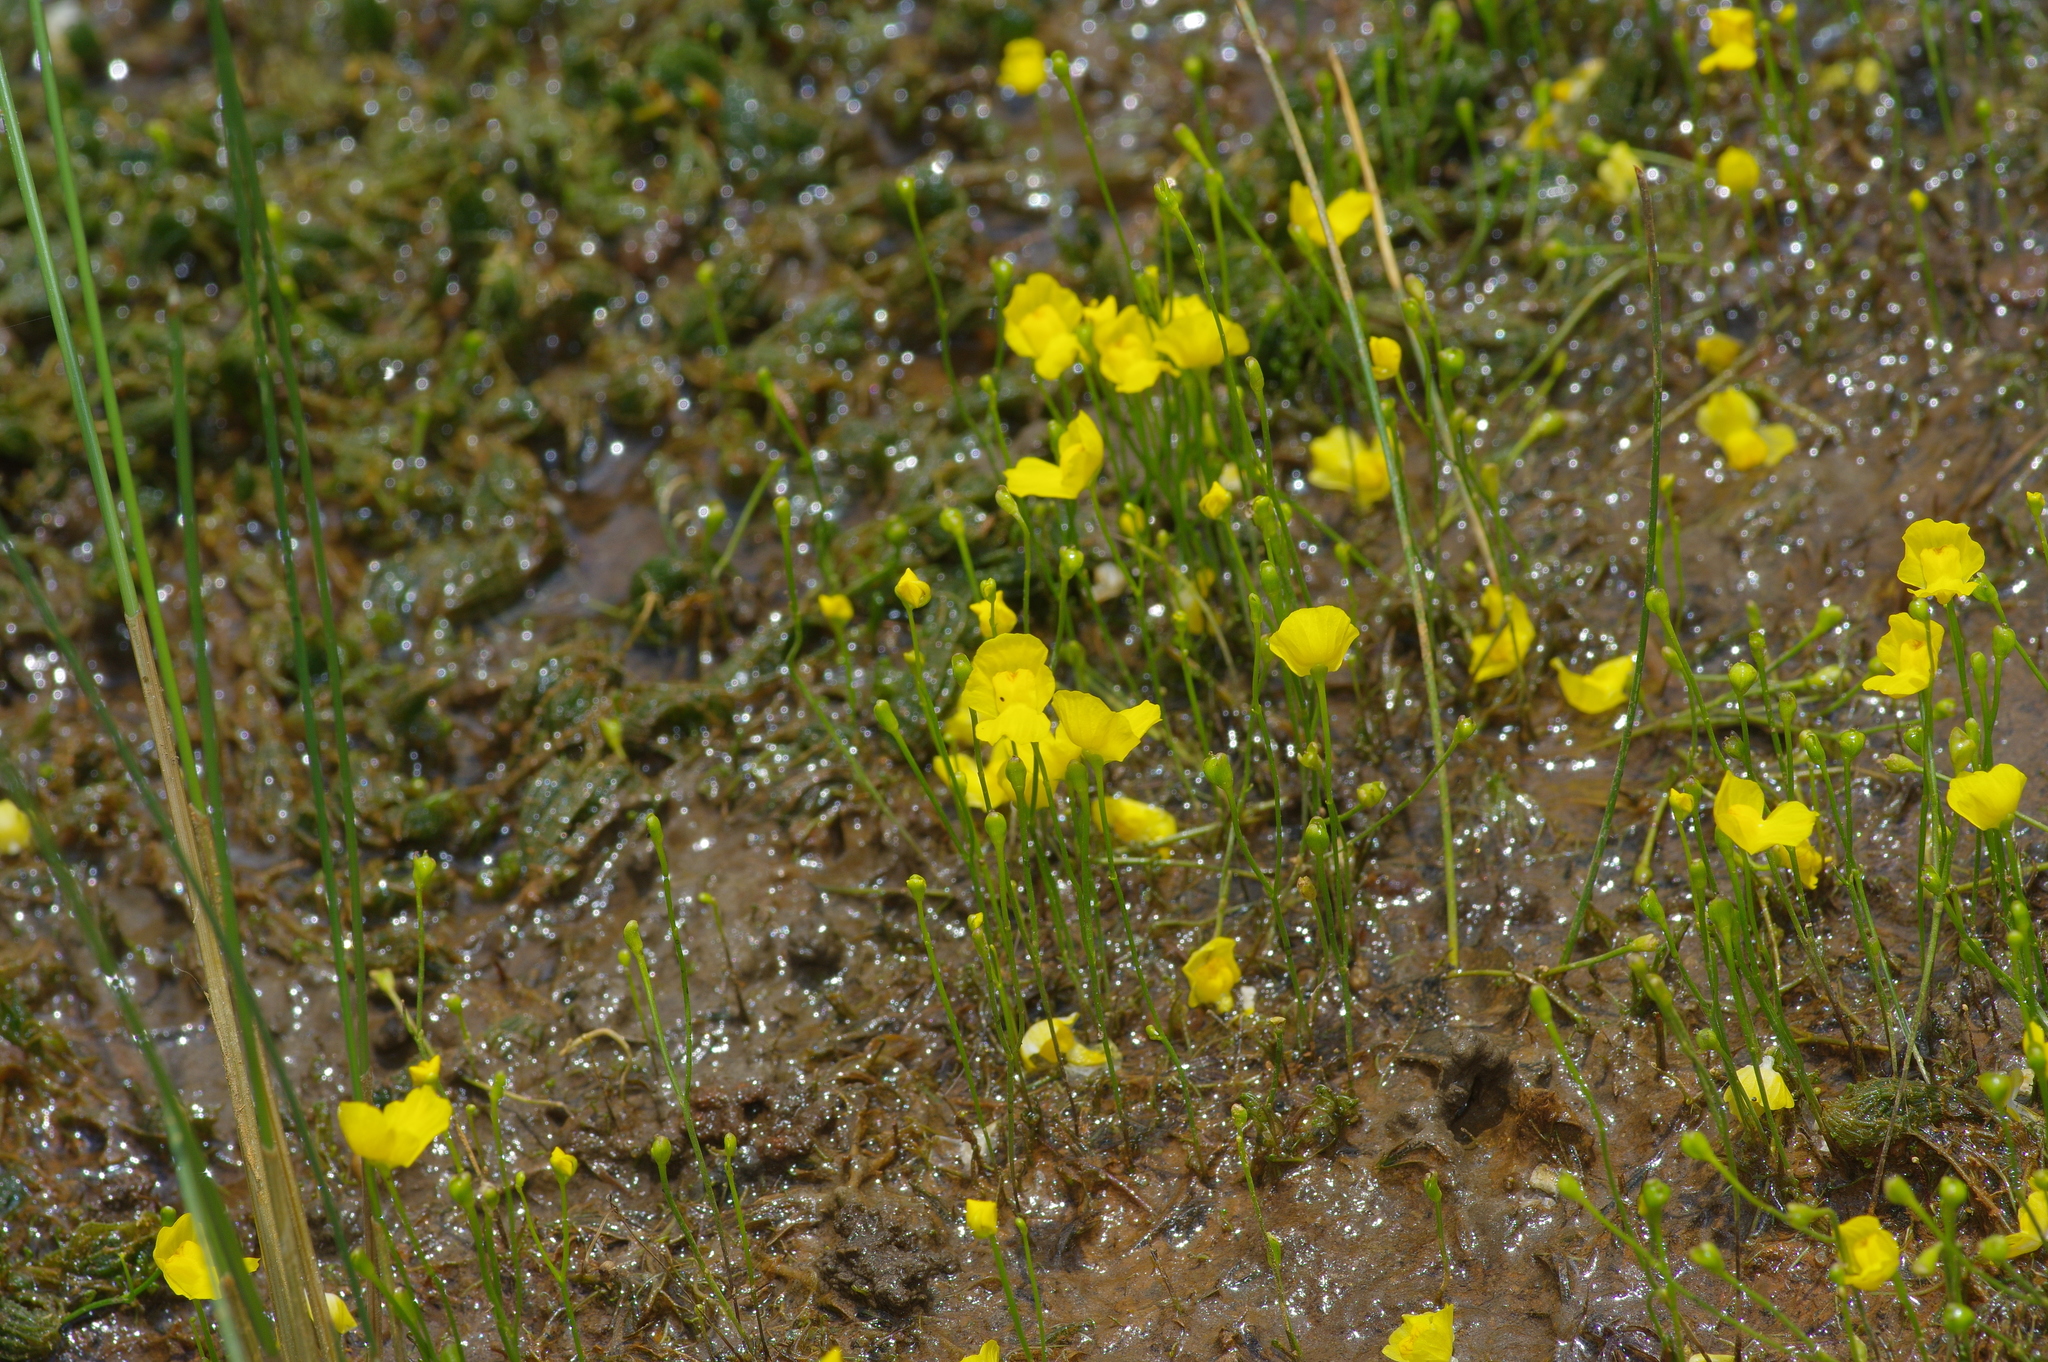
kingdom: Plantae
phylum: Tracheophyta
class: Magnoliopsida
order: Lamiales
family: Lentibulariaceae
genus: Utricularia
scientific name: Utricularia gibba
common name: Humped bladderwort
